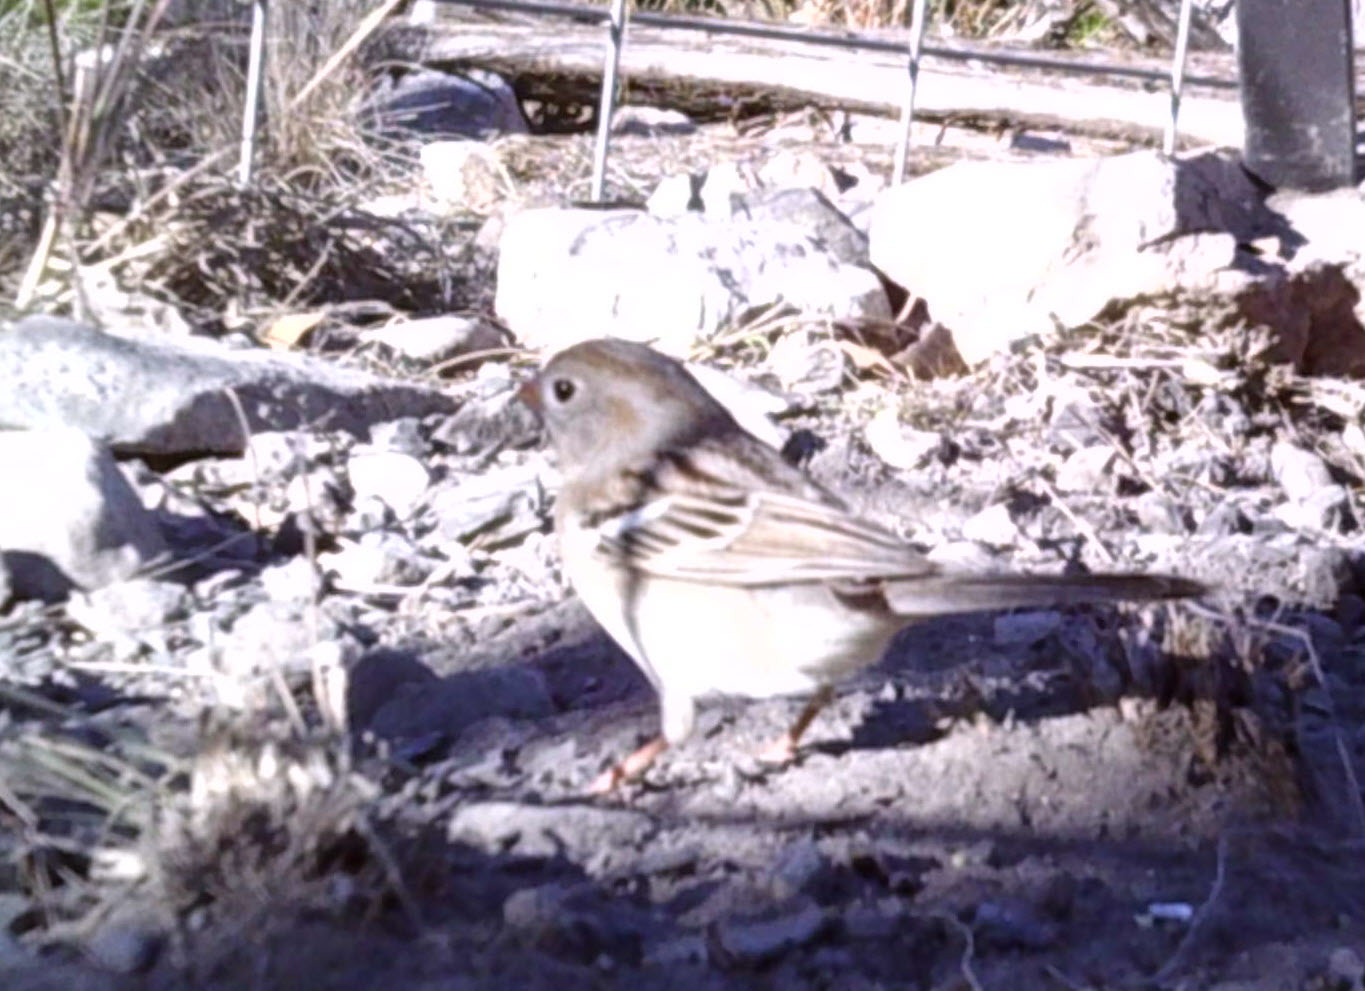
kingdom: Animalia
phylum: Chordata
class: Aves
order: Passeriformes
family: Passerellidae
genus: Spizella
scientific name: Spizella pusilla
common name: Field sparrow
